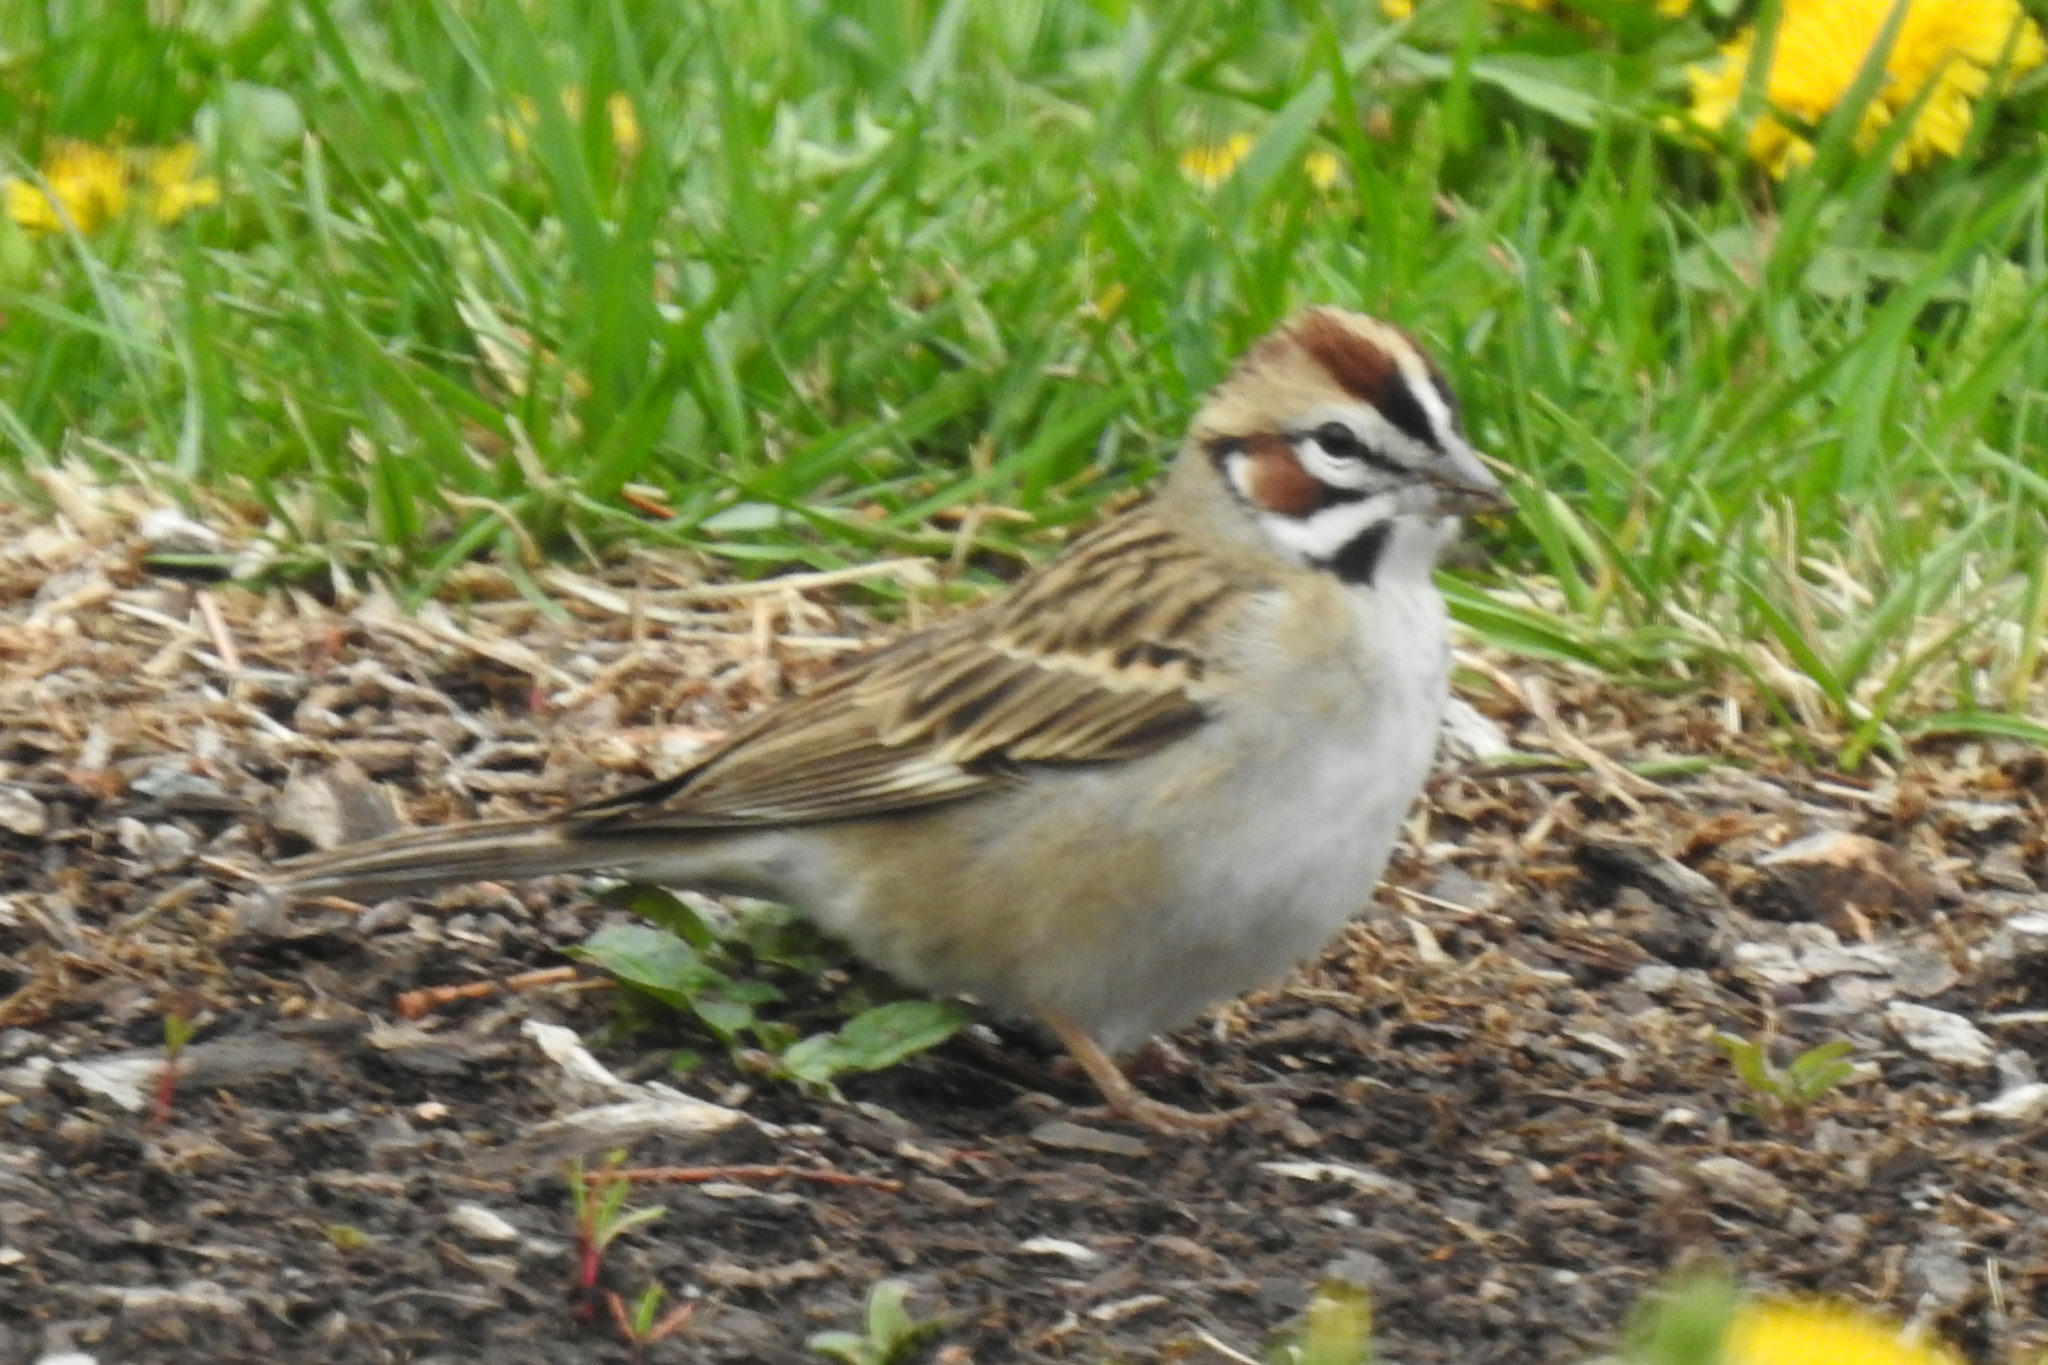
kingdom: Animalia
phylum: Chordata
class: Aves
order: Passeriformes
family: Passerellidae
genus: Chondestes
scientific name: Chondestes grammacus
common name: Lark sparrow
